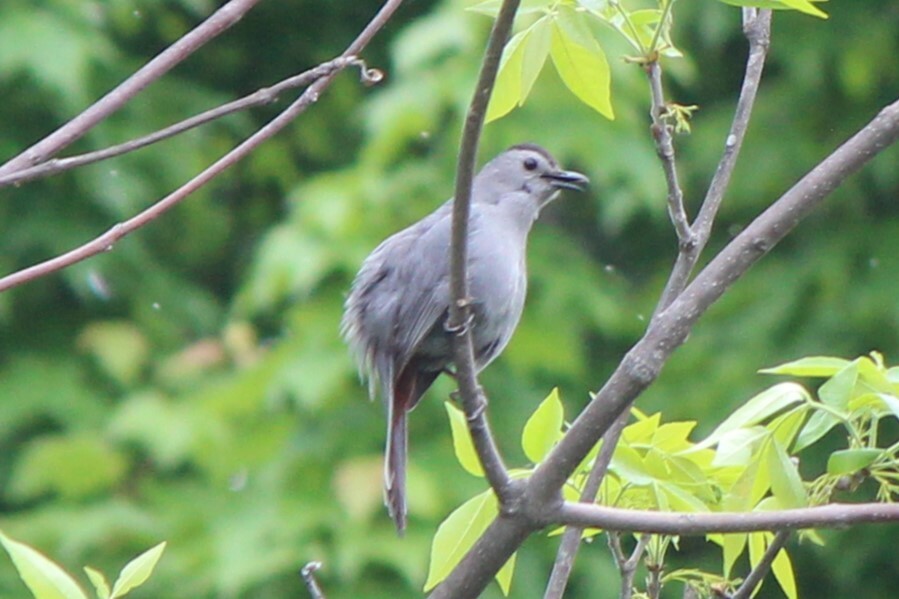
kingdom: Animalia
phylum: Chordata
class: Aves
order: Passeriformes
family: Mimidae
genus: Dumetella
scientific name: Dumetella carolinensis
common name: Gray catbird
